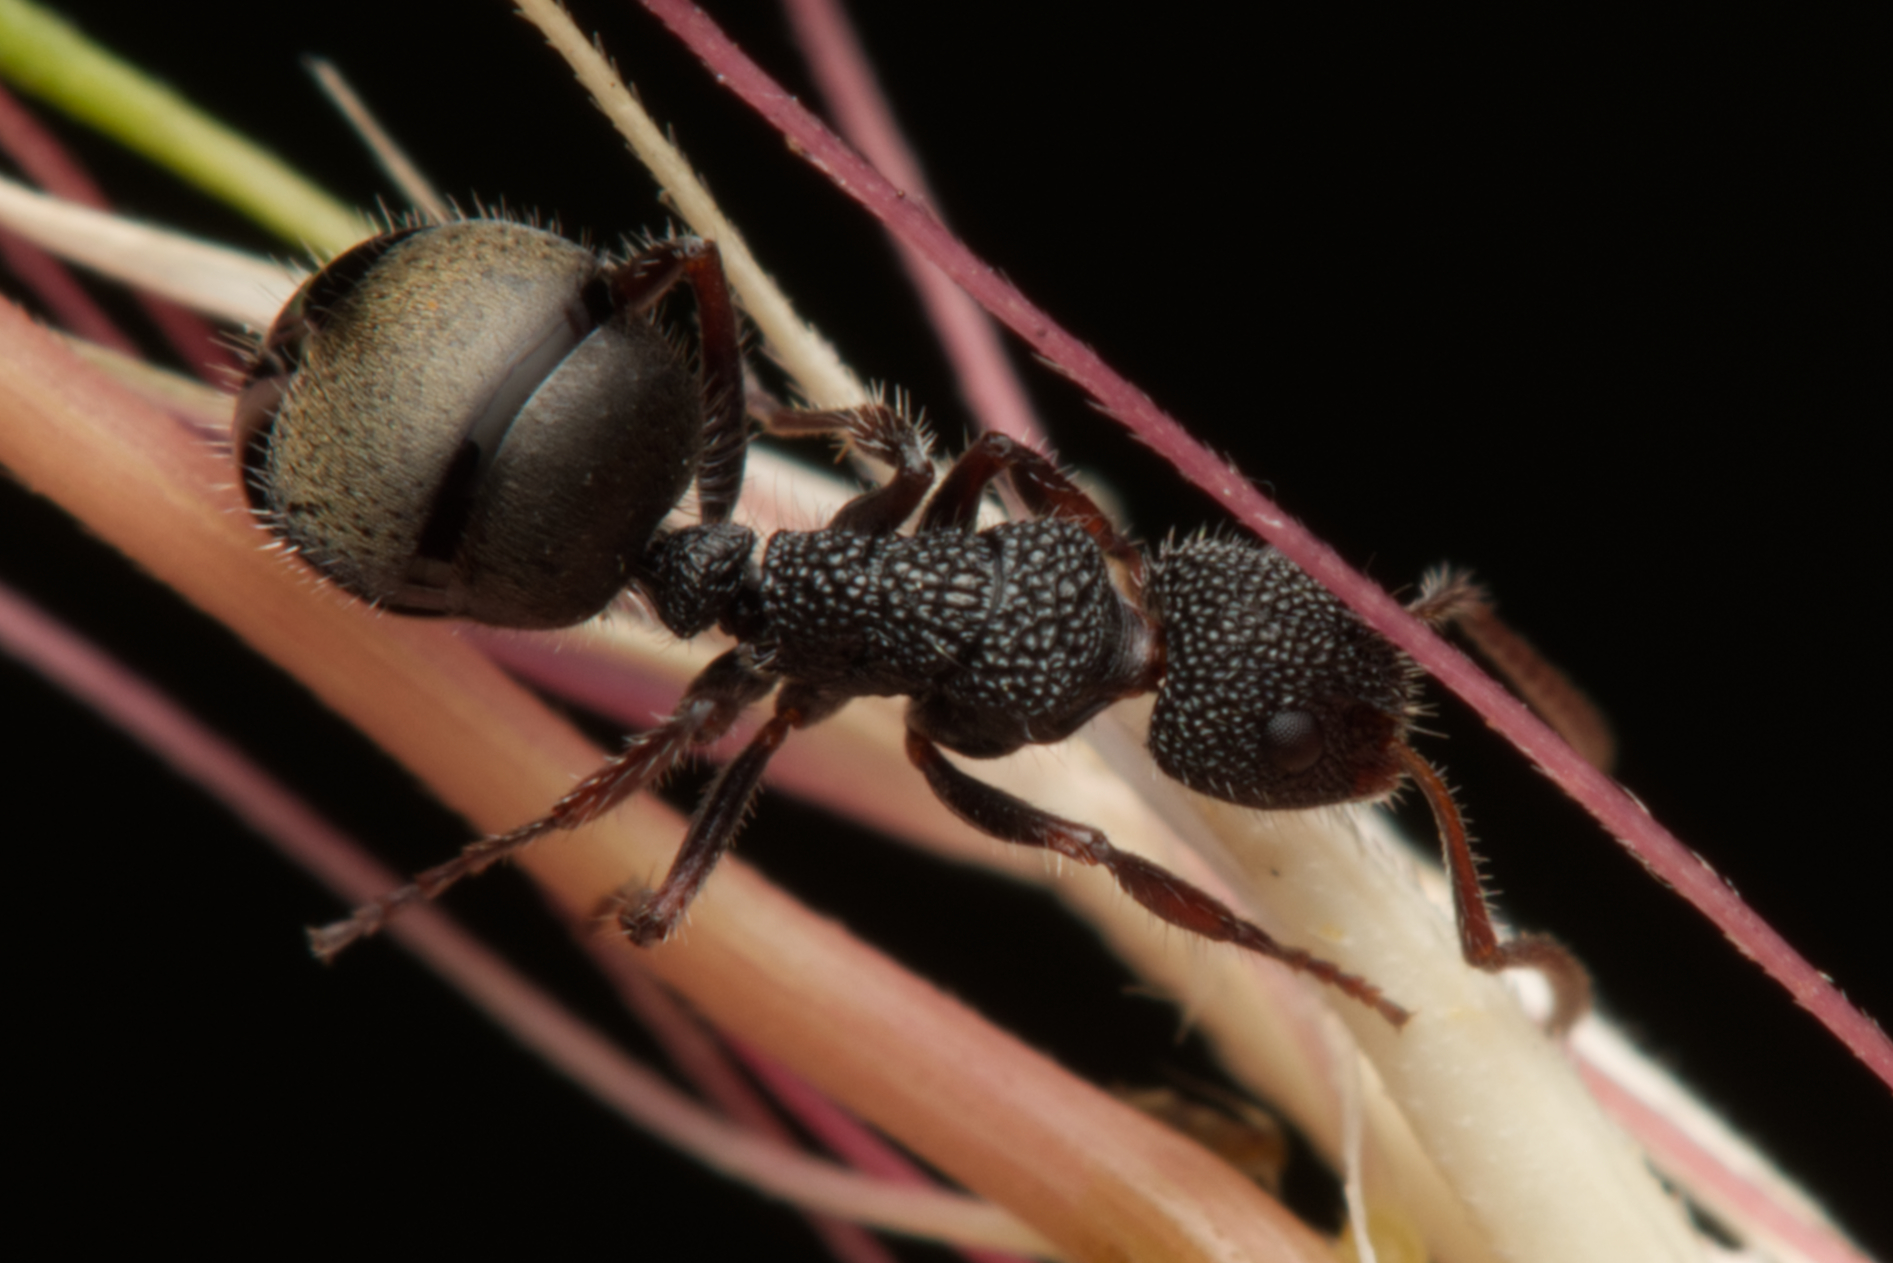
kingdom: Animalia
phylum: Arthropoda
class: Insecta
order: Hymenoptera
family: Formicidae
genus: Dolichoderus
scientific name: Dolichoderus scrobiculatus
